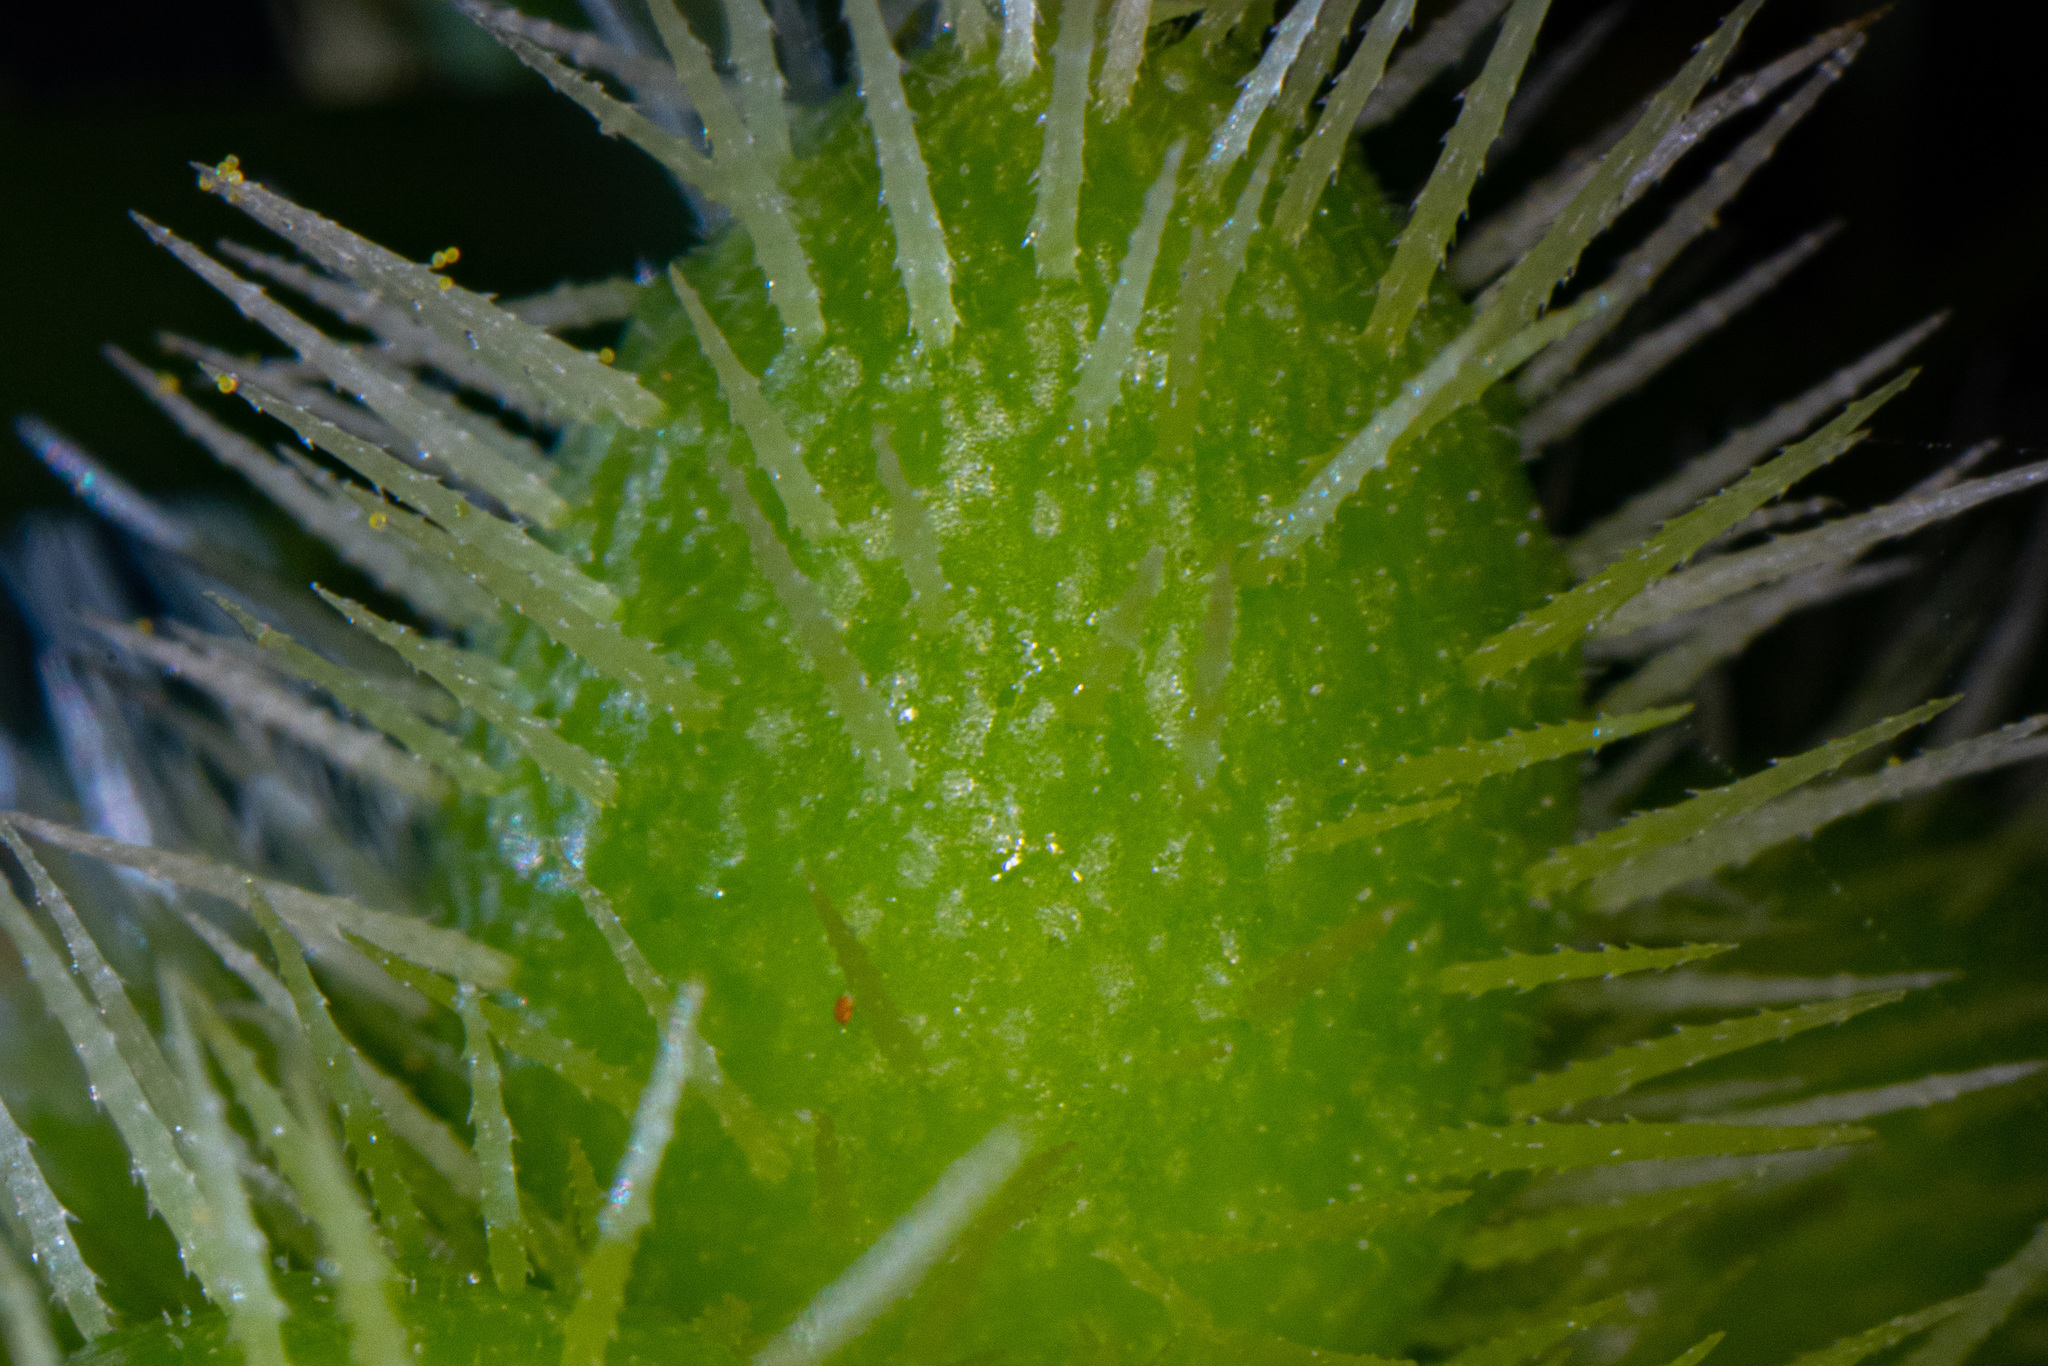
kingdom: Plantae
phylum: Tracheophyta
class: Magnoliopsida
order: Cucurbitales
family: Cucurbitaceae
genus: Sicyos
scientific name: Sicyos australis
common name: Angle-cucumber
